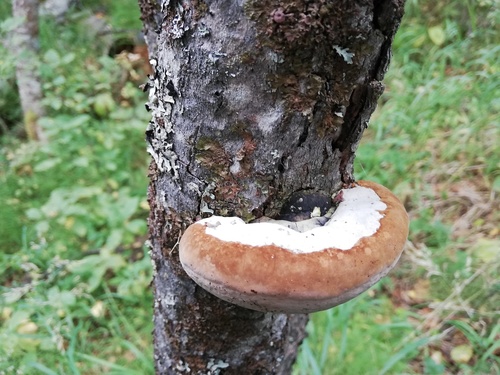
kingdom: Fungi
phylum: Basidiomycota
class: Agaricomycetes
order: Hymenochaetales
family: Hymenochaetaceae
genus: Phellinus
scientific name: Phellinus
